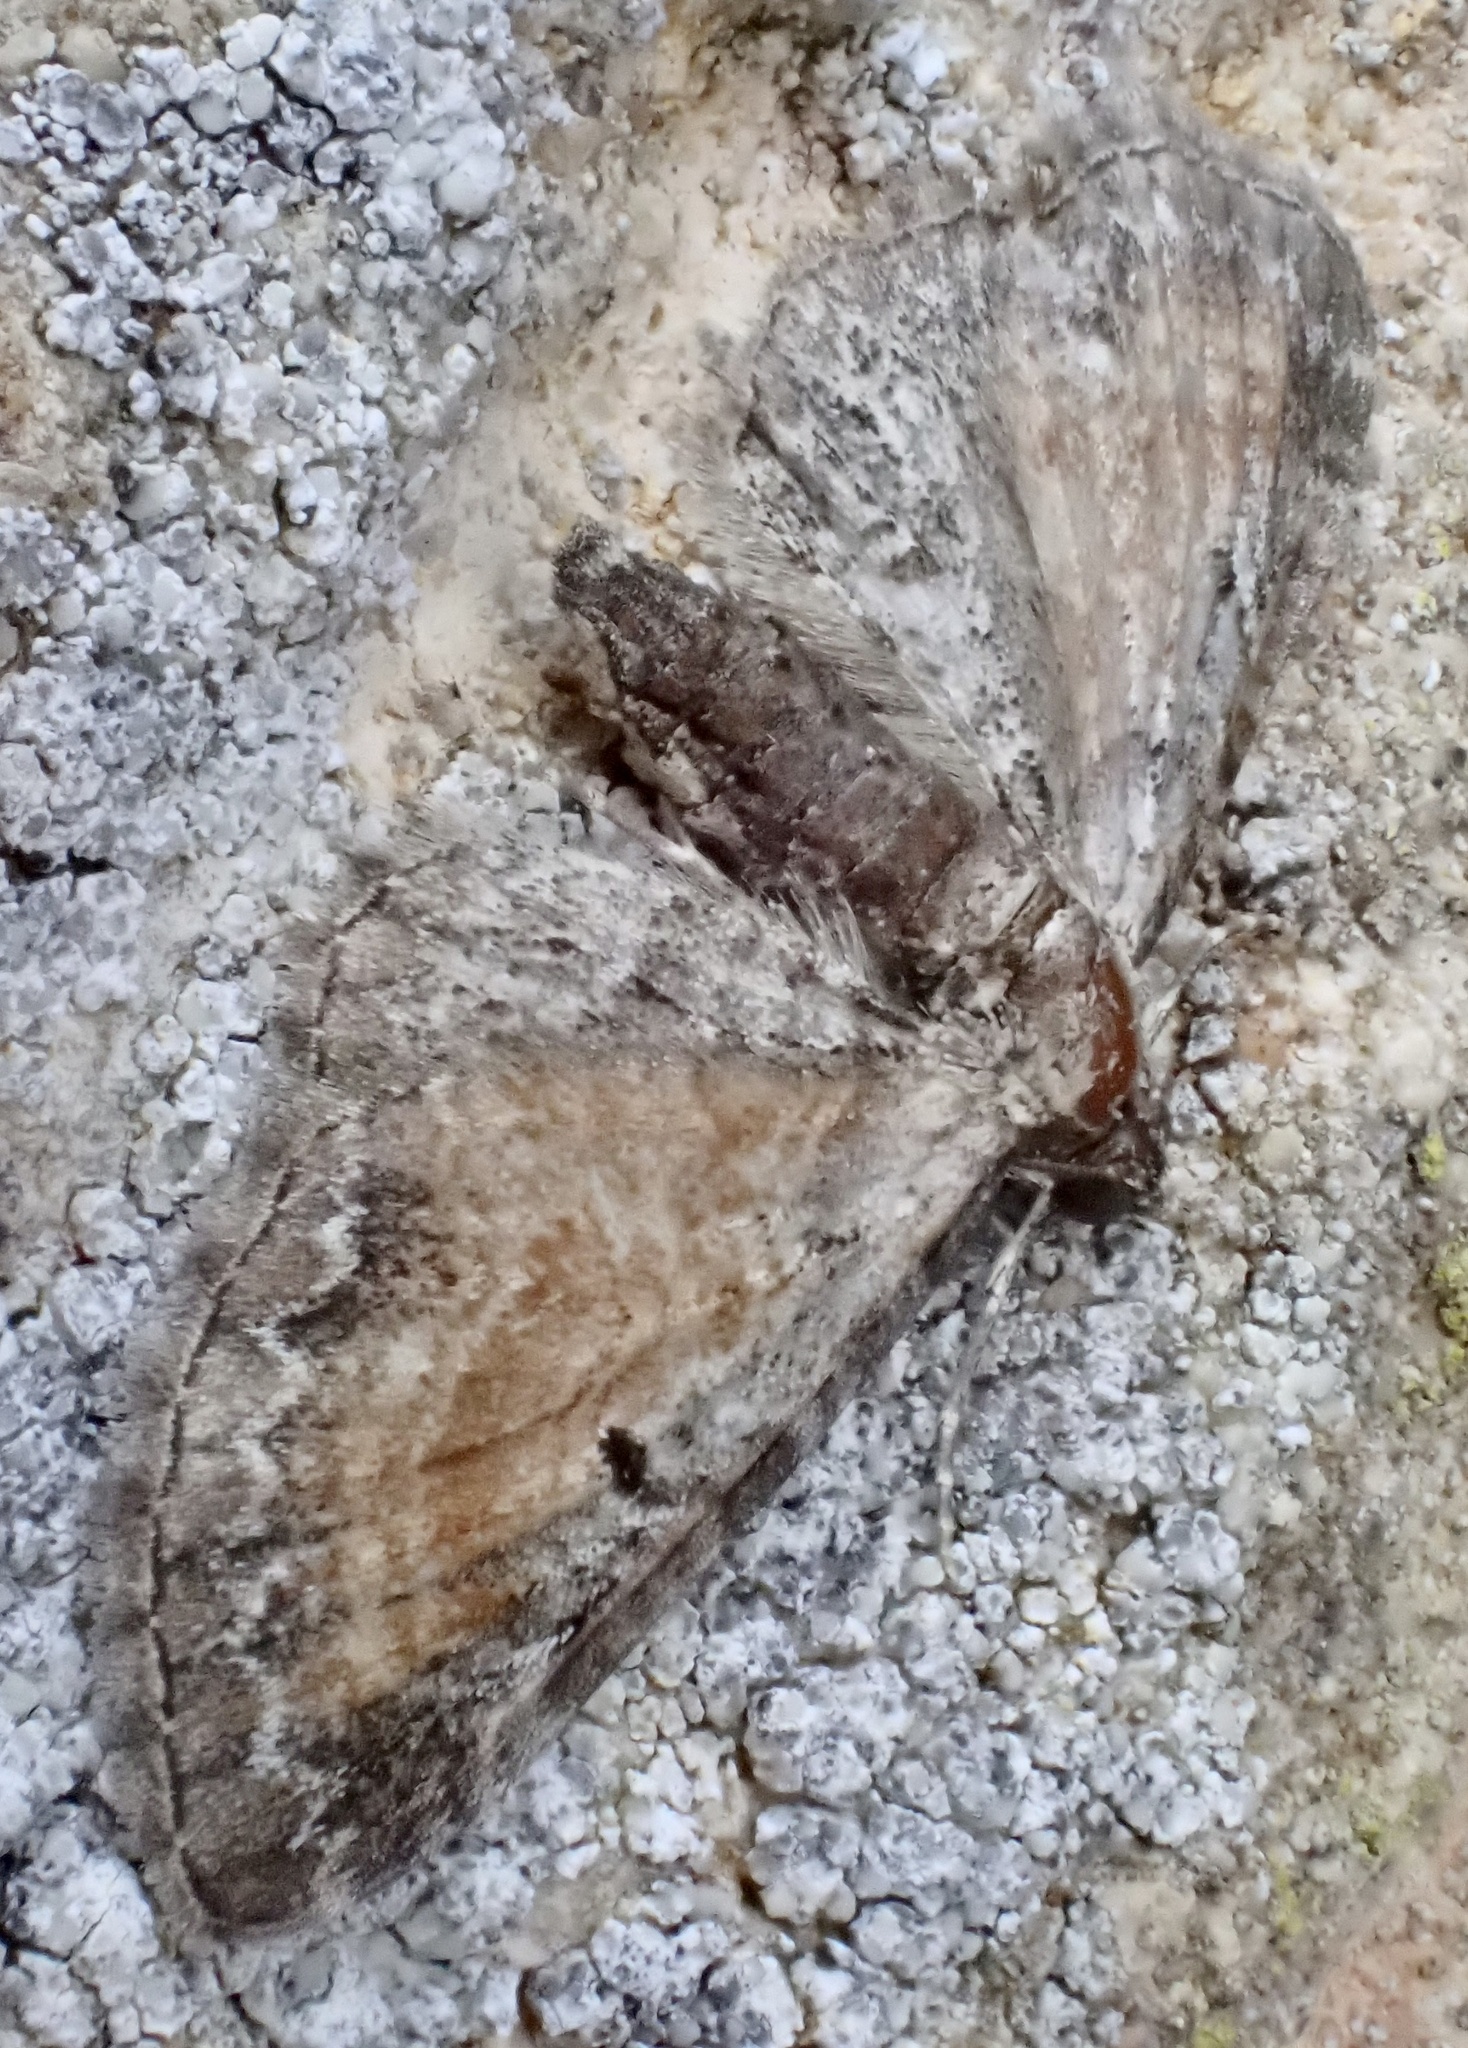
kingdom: Animalia
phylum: Arthropoda
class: Insecta
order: Lepidoptera
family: Geometridae
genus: Eupithecia
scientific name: Eupithecia icterata
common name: Tawny speckled pug
